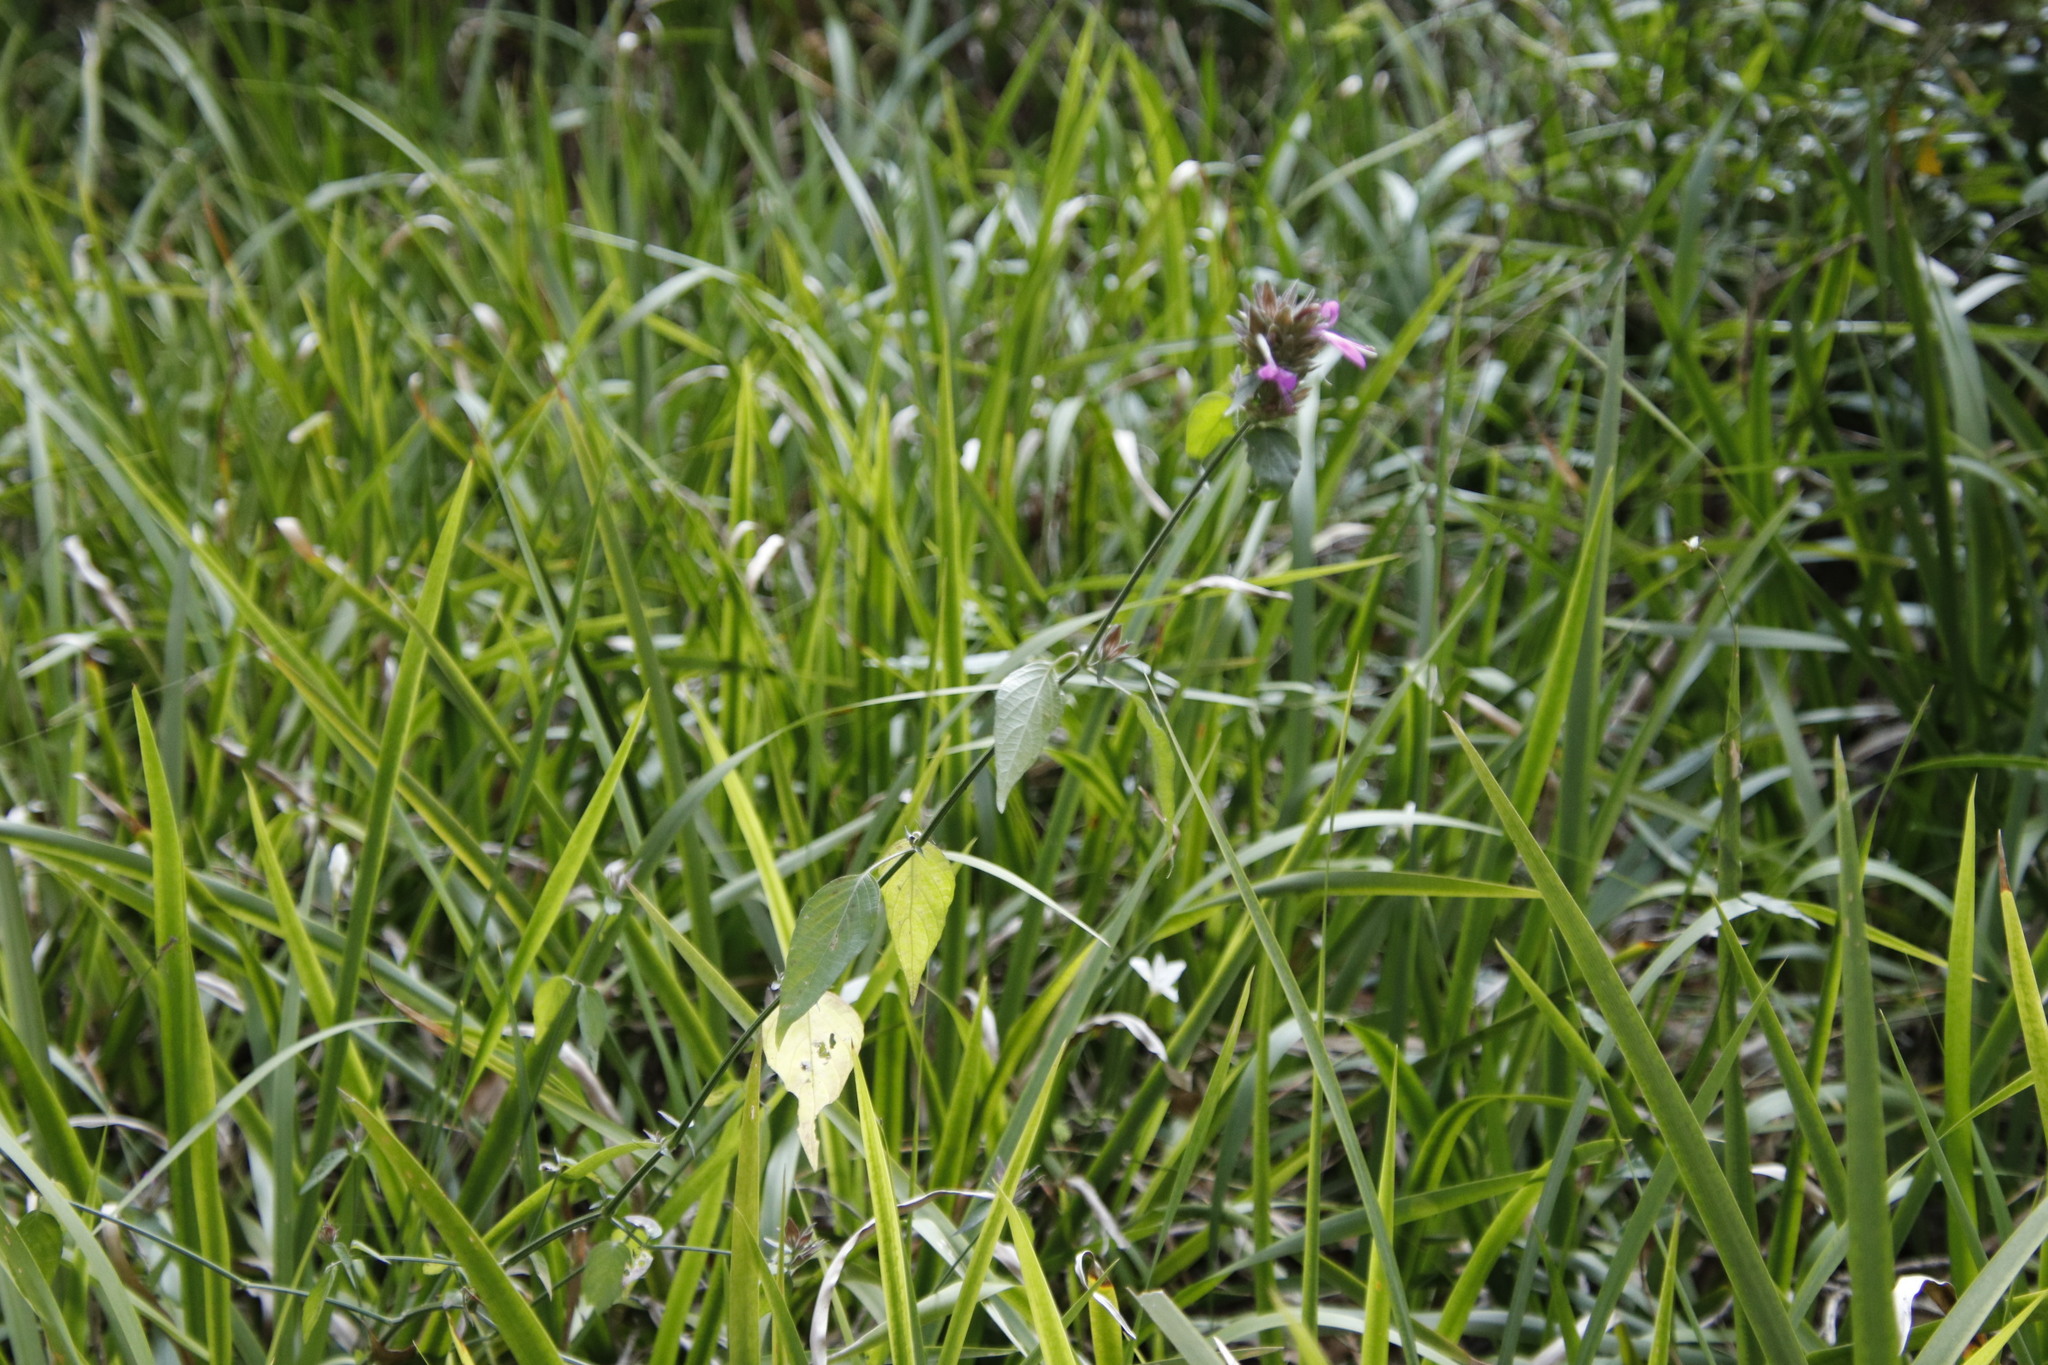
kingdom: Plantae
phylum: Tracheophyta
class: Magnoliopsida
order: Lamiales
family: Acanthaceae
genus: Dicliptera
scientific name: Dicliptera clinopodia
